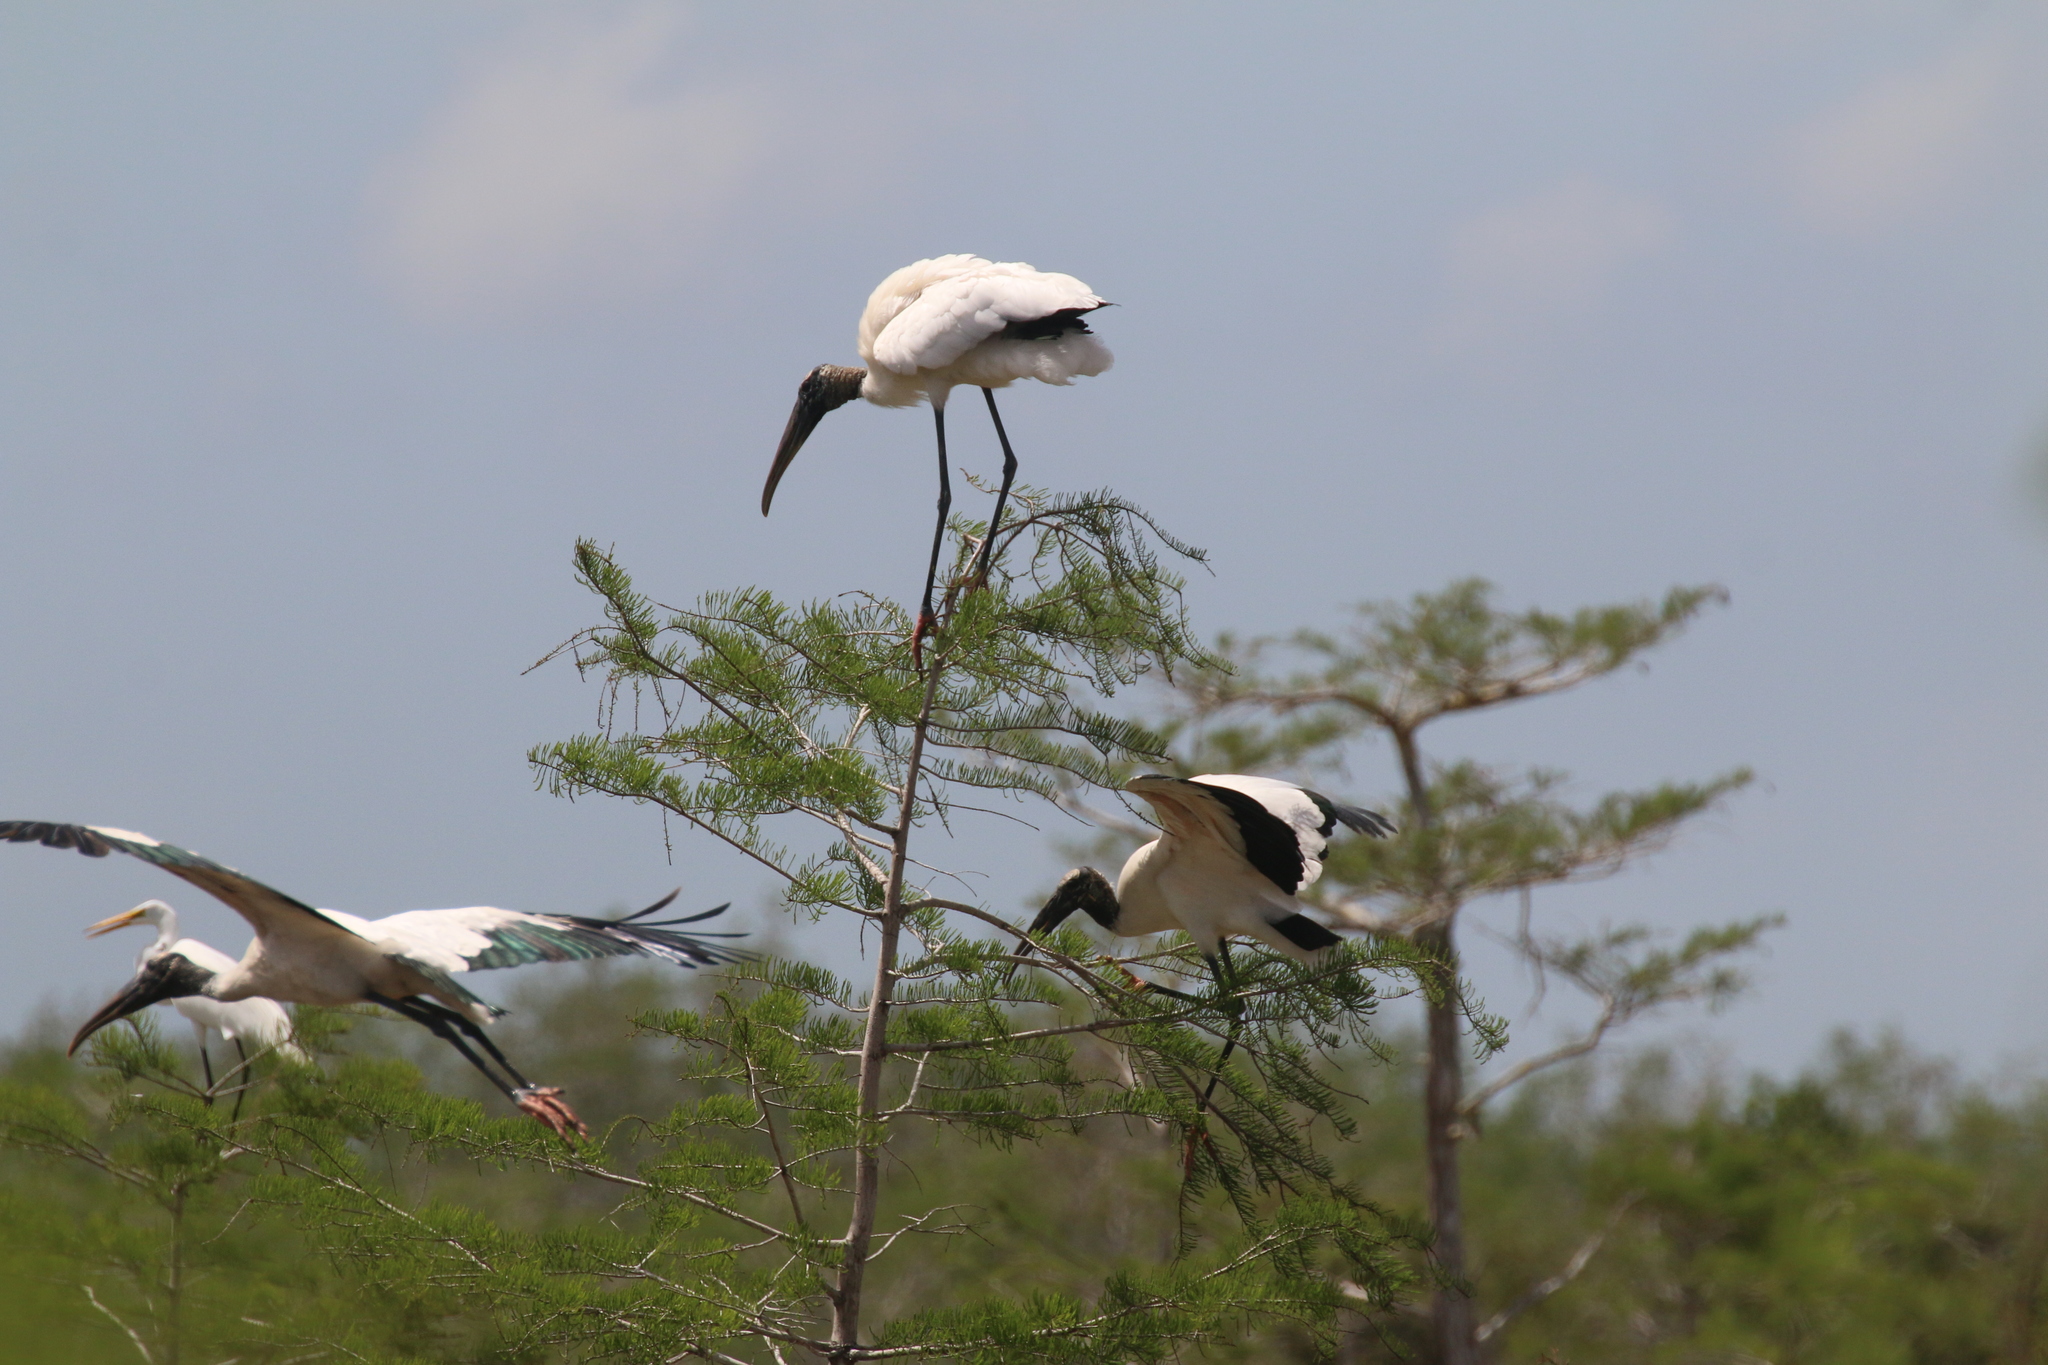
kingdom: Animalia
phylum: Chordata
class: Aves
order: Ciconiiformes
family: Ciconiidae
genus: Mycteria
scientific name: Mycteria americana
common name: Wood stork
